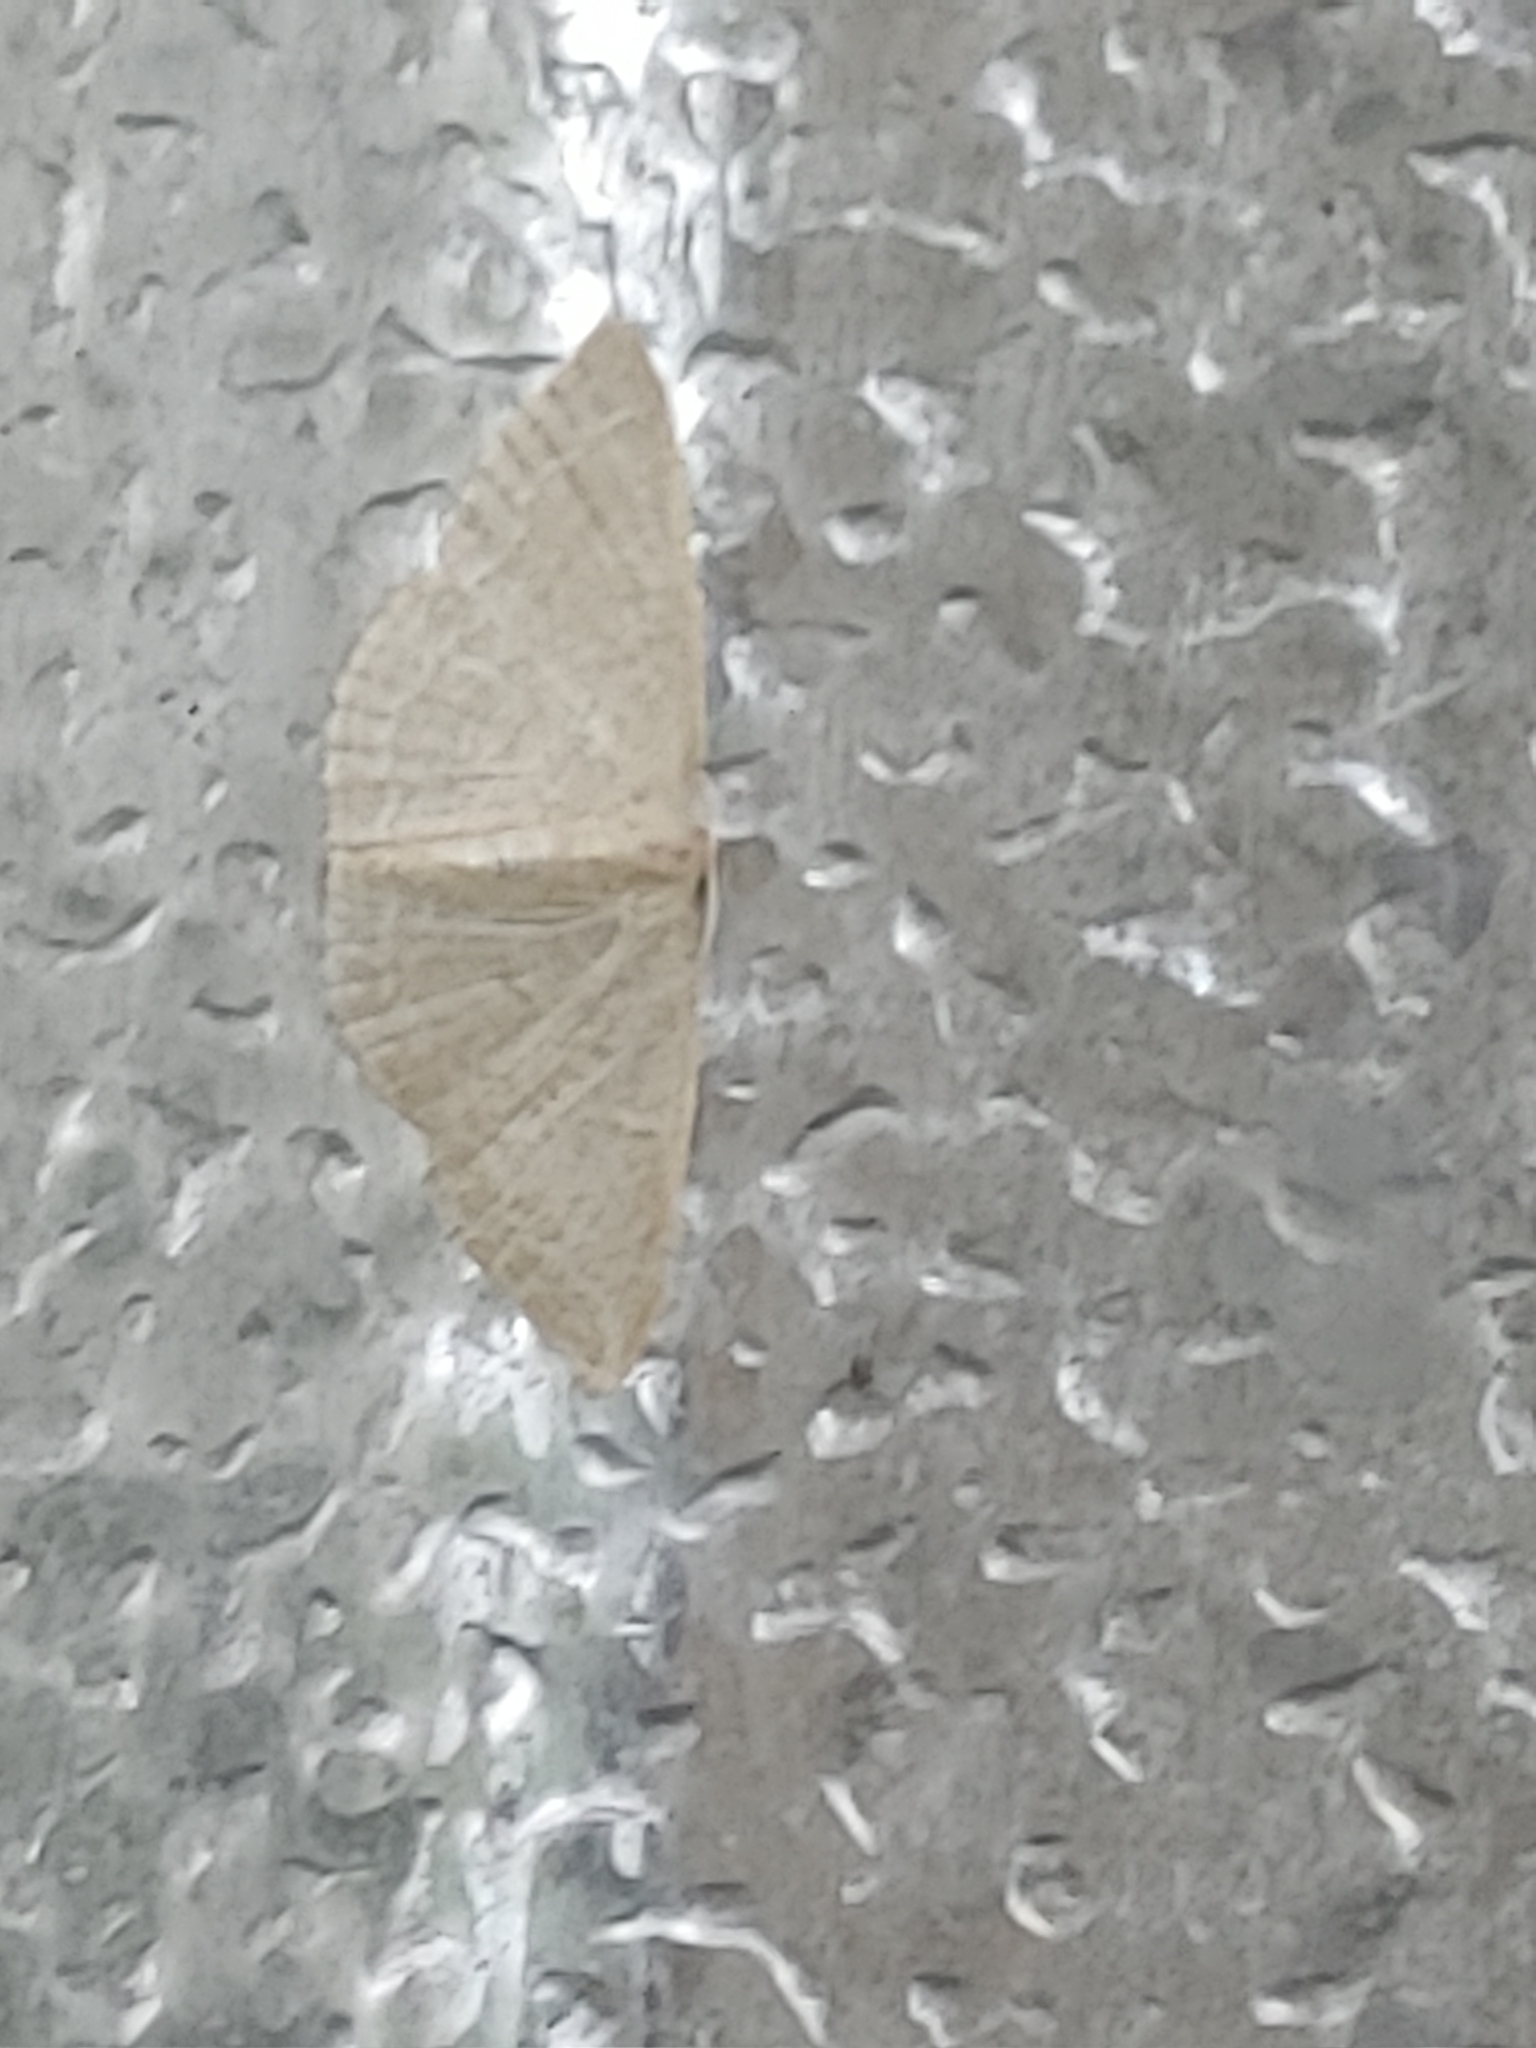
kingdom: Animalia
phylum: Arthropoda
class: Insecta
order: Lepidoptera
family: Geometridae
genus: Pleuroprucha
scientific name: Pleuroprucha insulsaria
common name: Common tan wave
